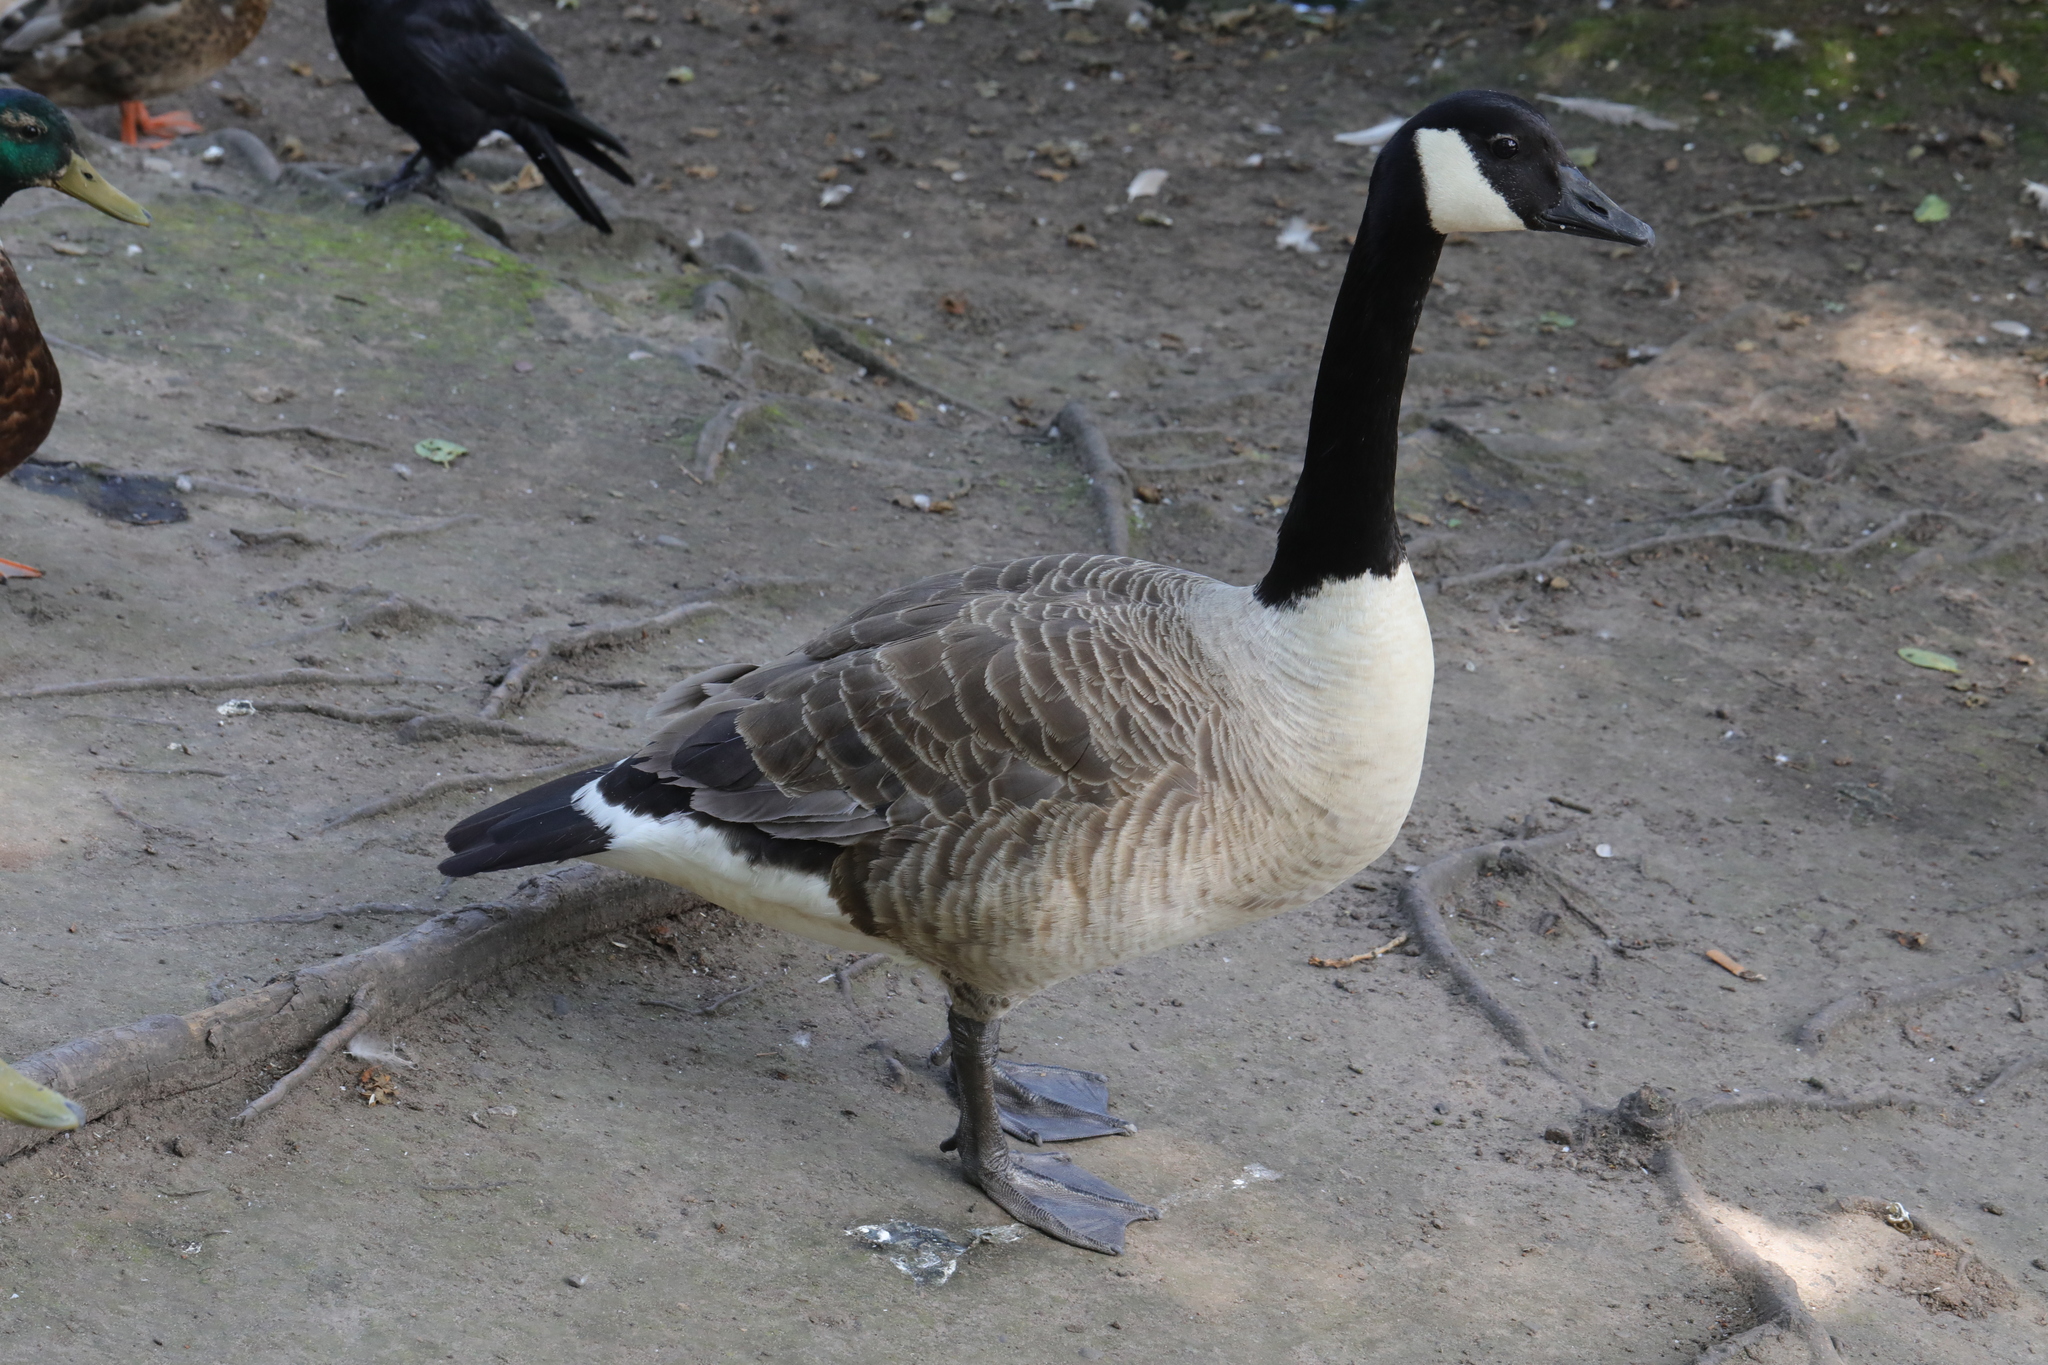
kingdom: Animalia
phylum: Chordata
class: Aves
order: Anseriformes
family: Anatidae
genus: Branta
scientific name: Branta canadensis
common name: Canada goose
